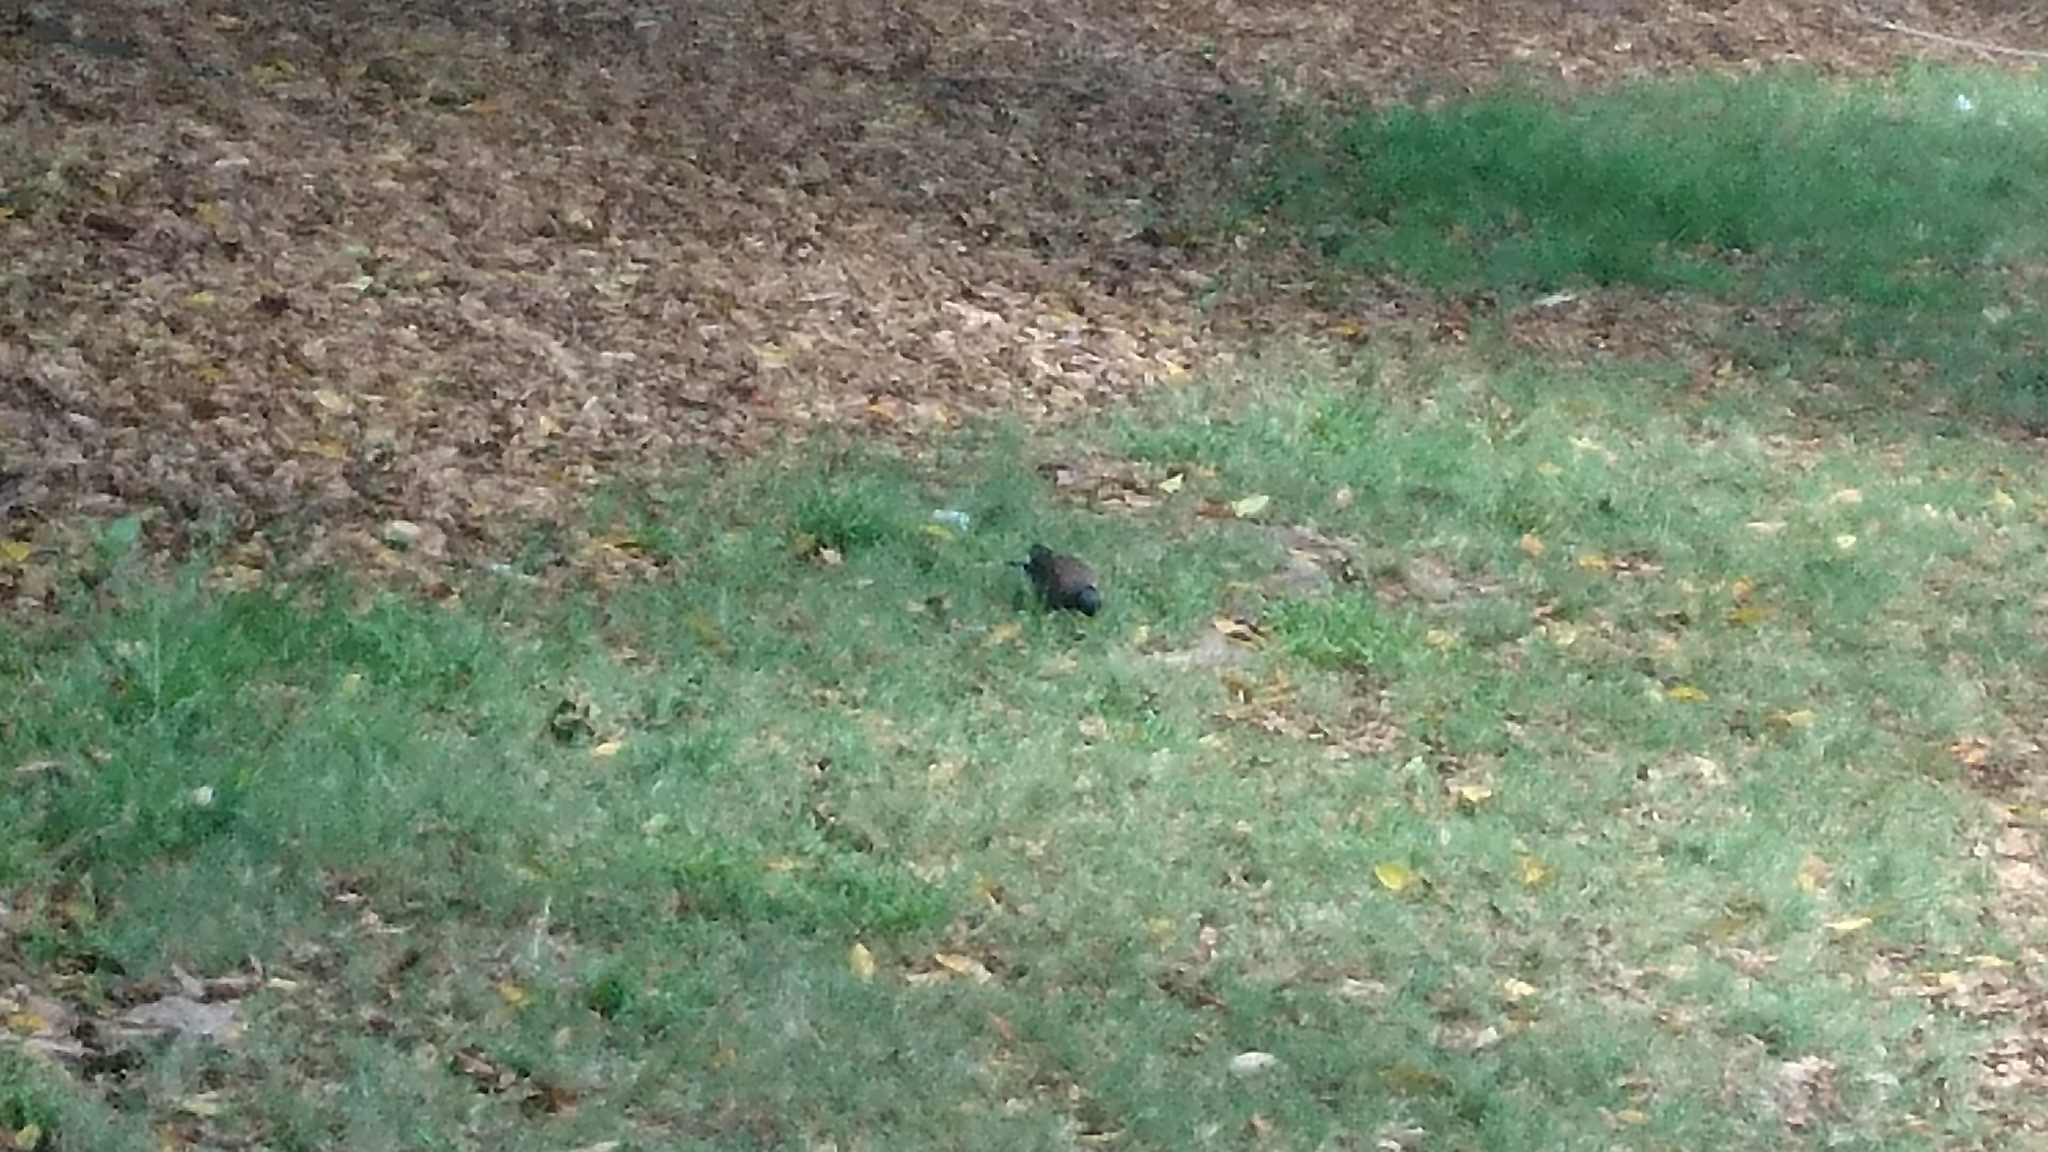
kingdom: Animalia
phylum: Chordata
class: Aves
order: Passeriformes
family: Sturnidae
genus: Acridotheres
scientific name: Acridotheres tristis
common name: Common myna
